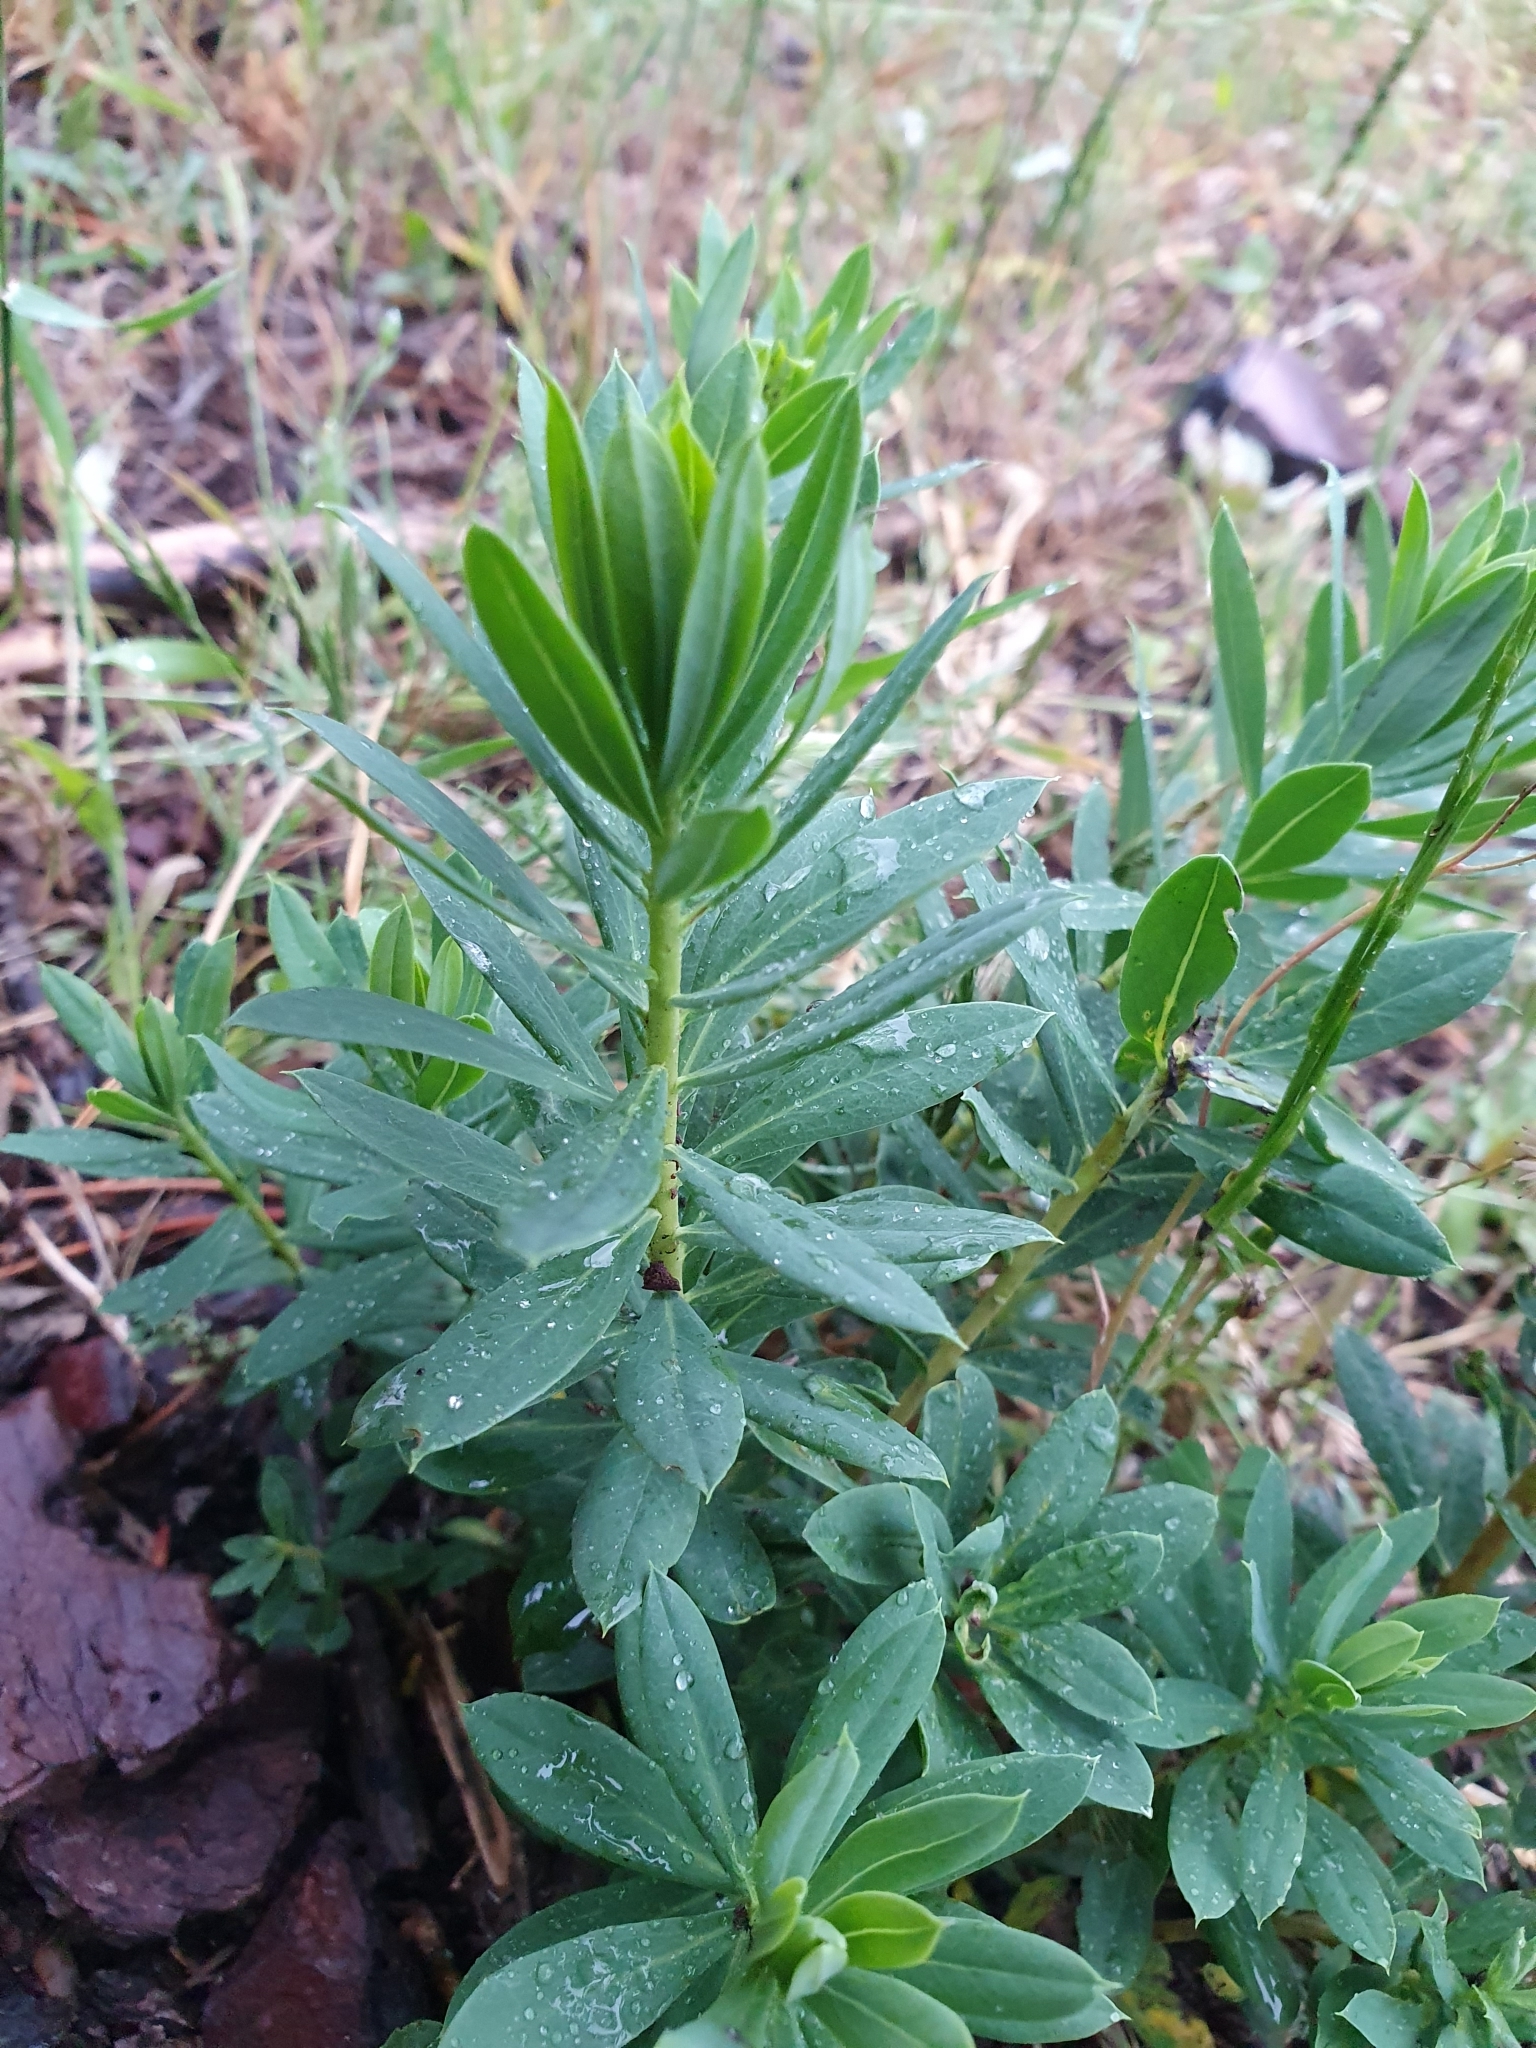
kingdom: Plantae
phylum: Tracheophyta
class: Magnoliopsida
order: Malvales
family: Thymelaeaceae
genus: Daphne
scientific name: Daphne gnidium
